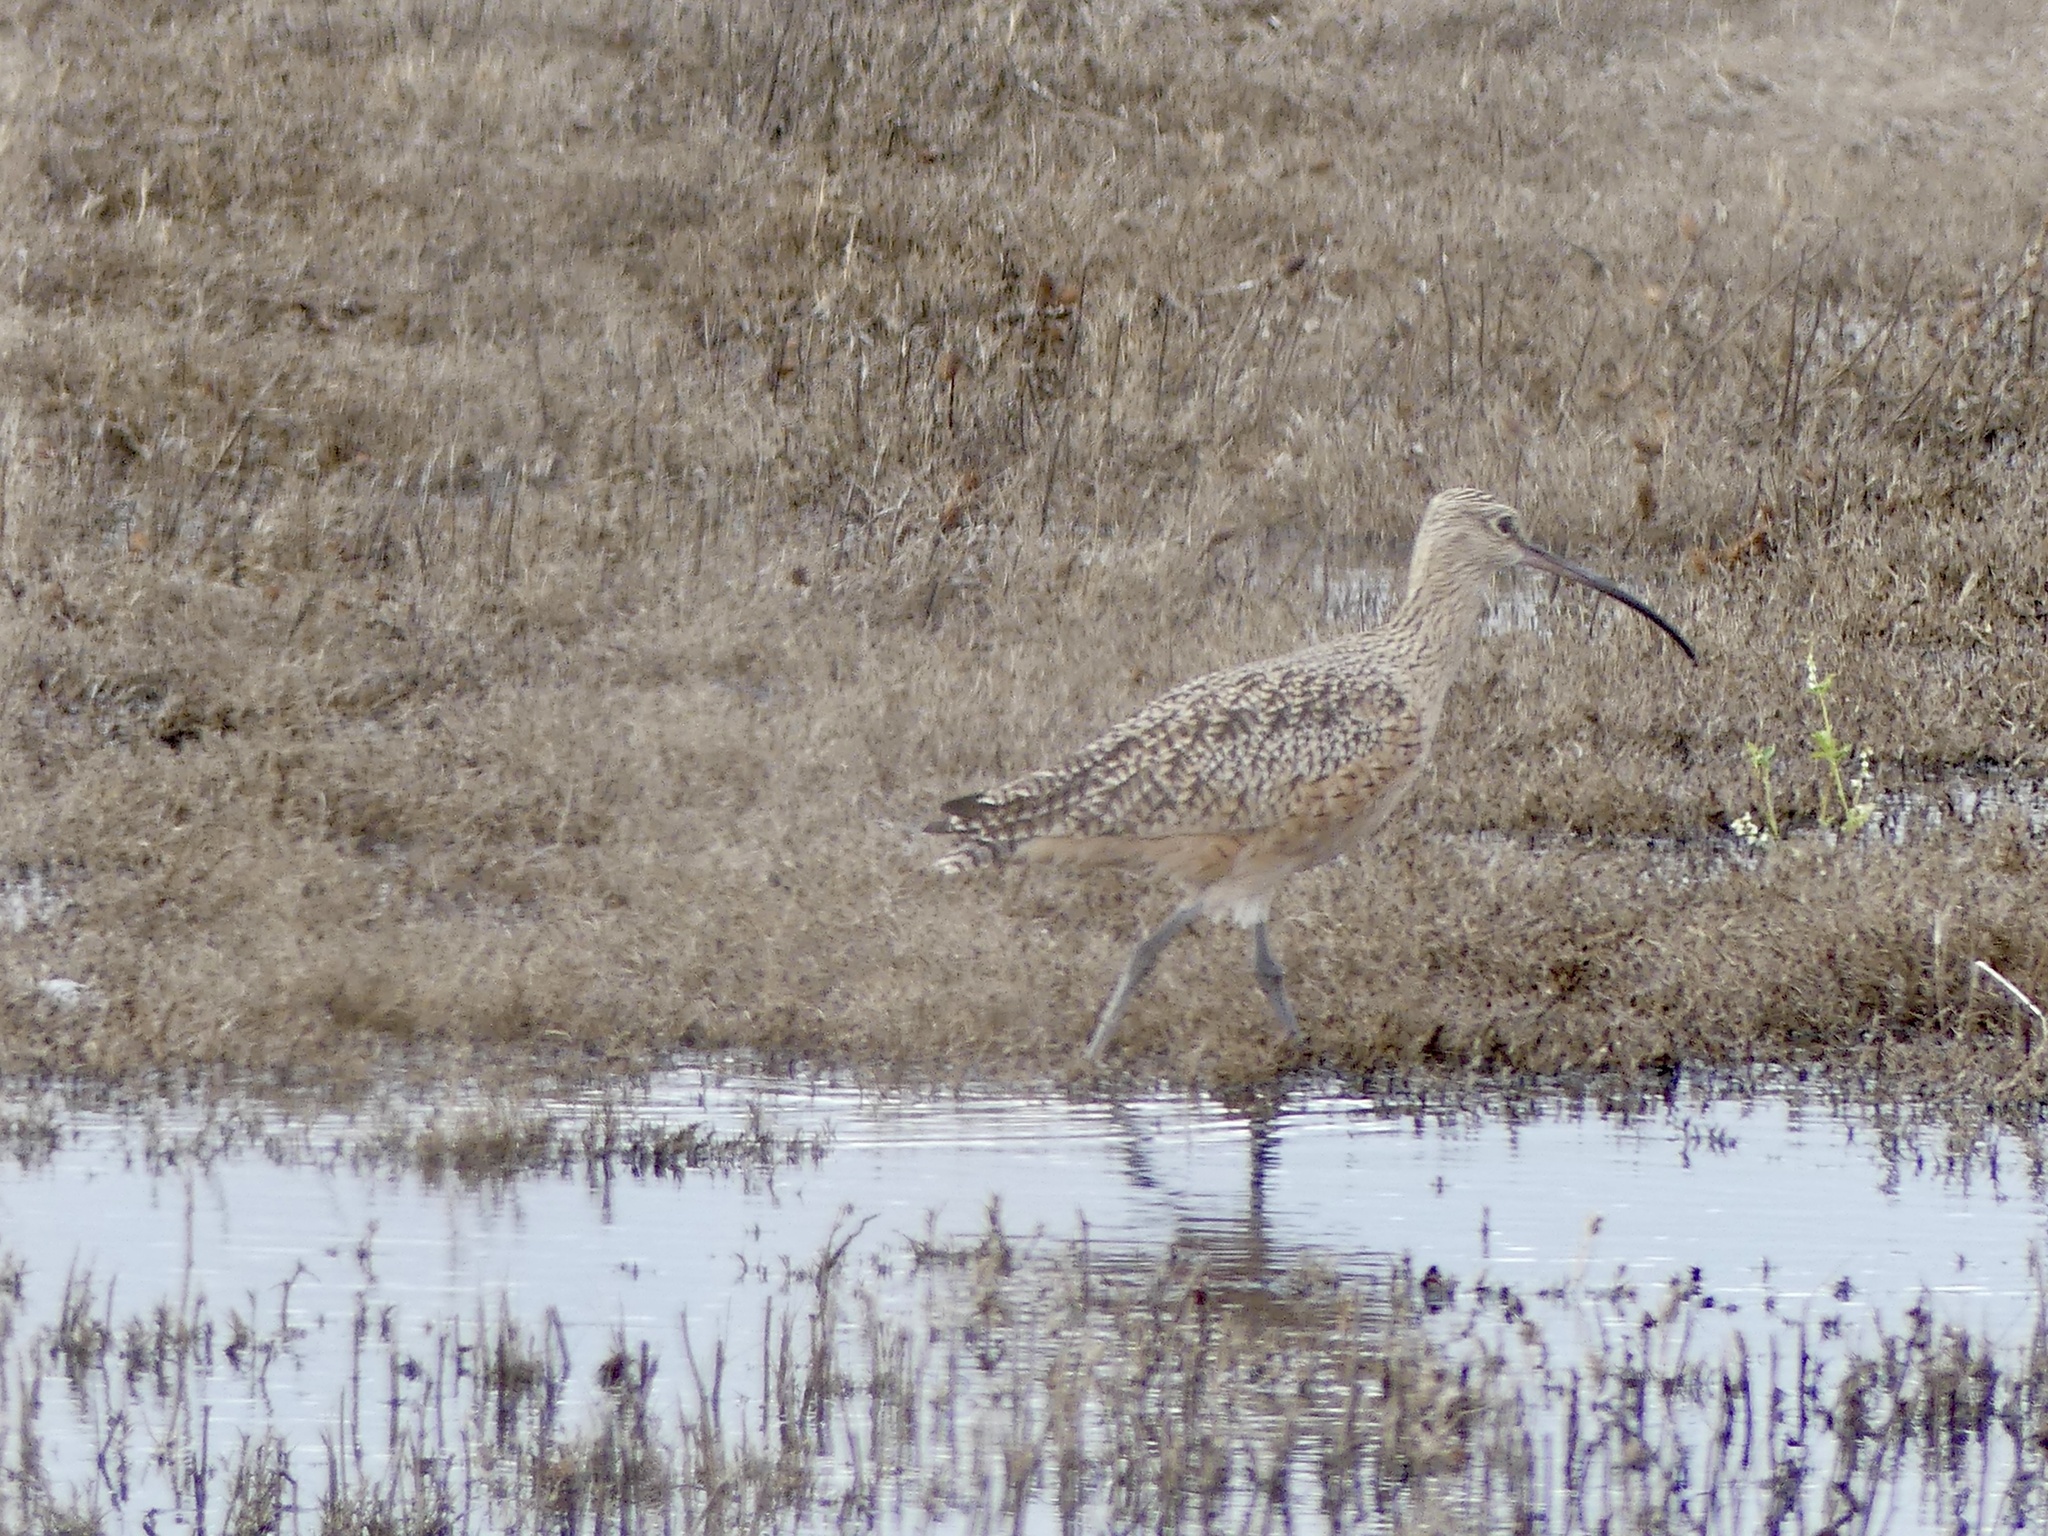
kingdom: Animalia
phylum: Chordata
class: Aves
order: Charadriiformes
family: Scolopacidae
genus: Numenius
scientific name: Numenius americanus
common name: Long-billed curlew
